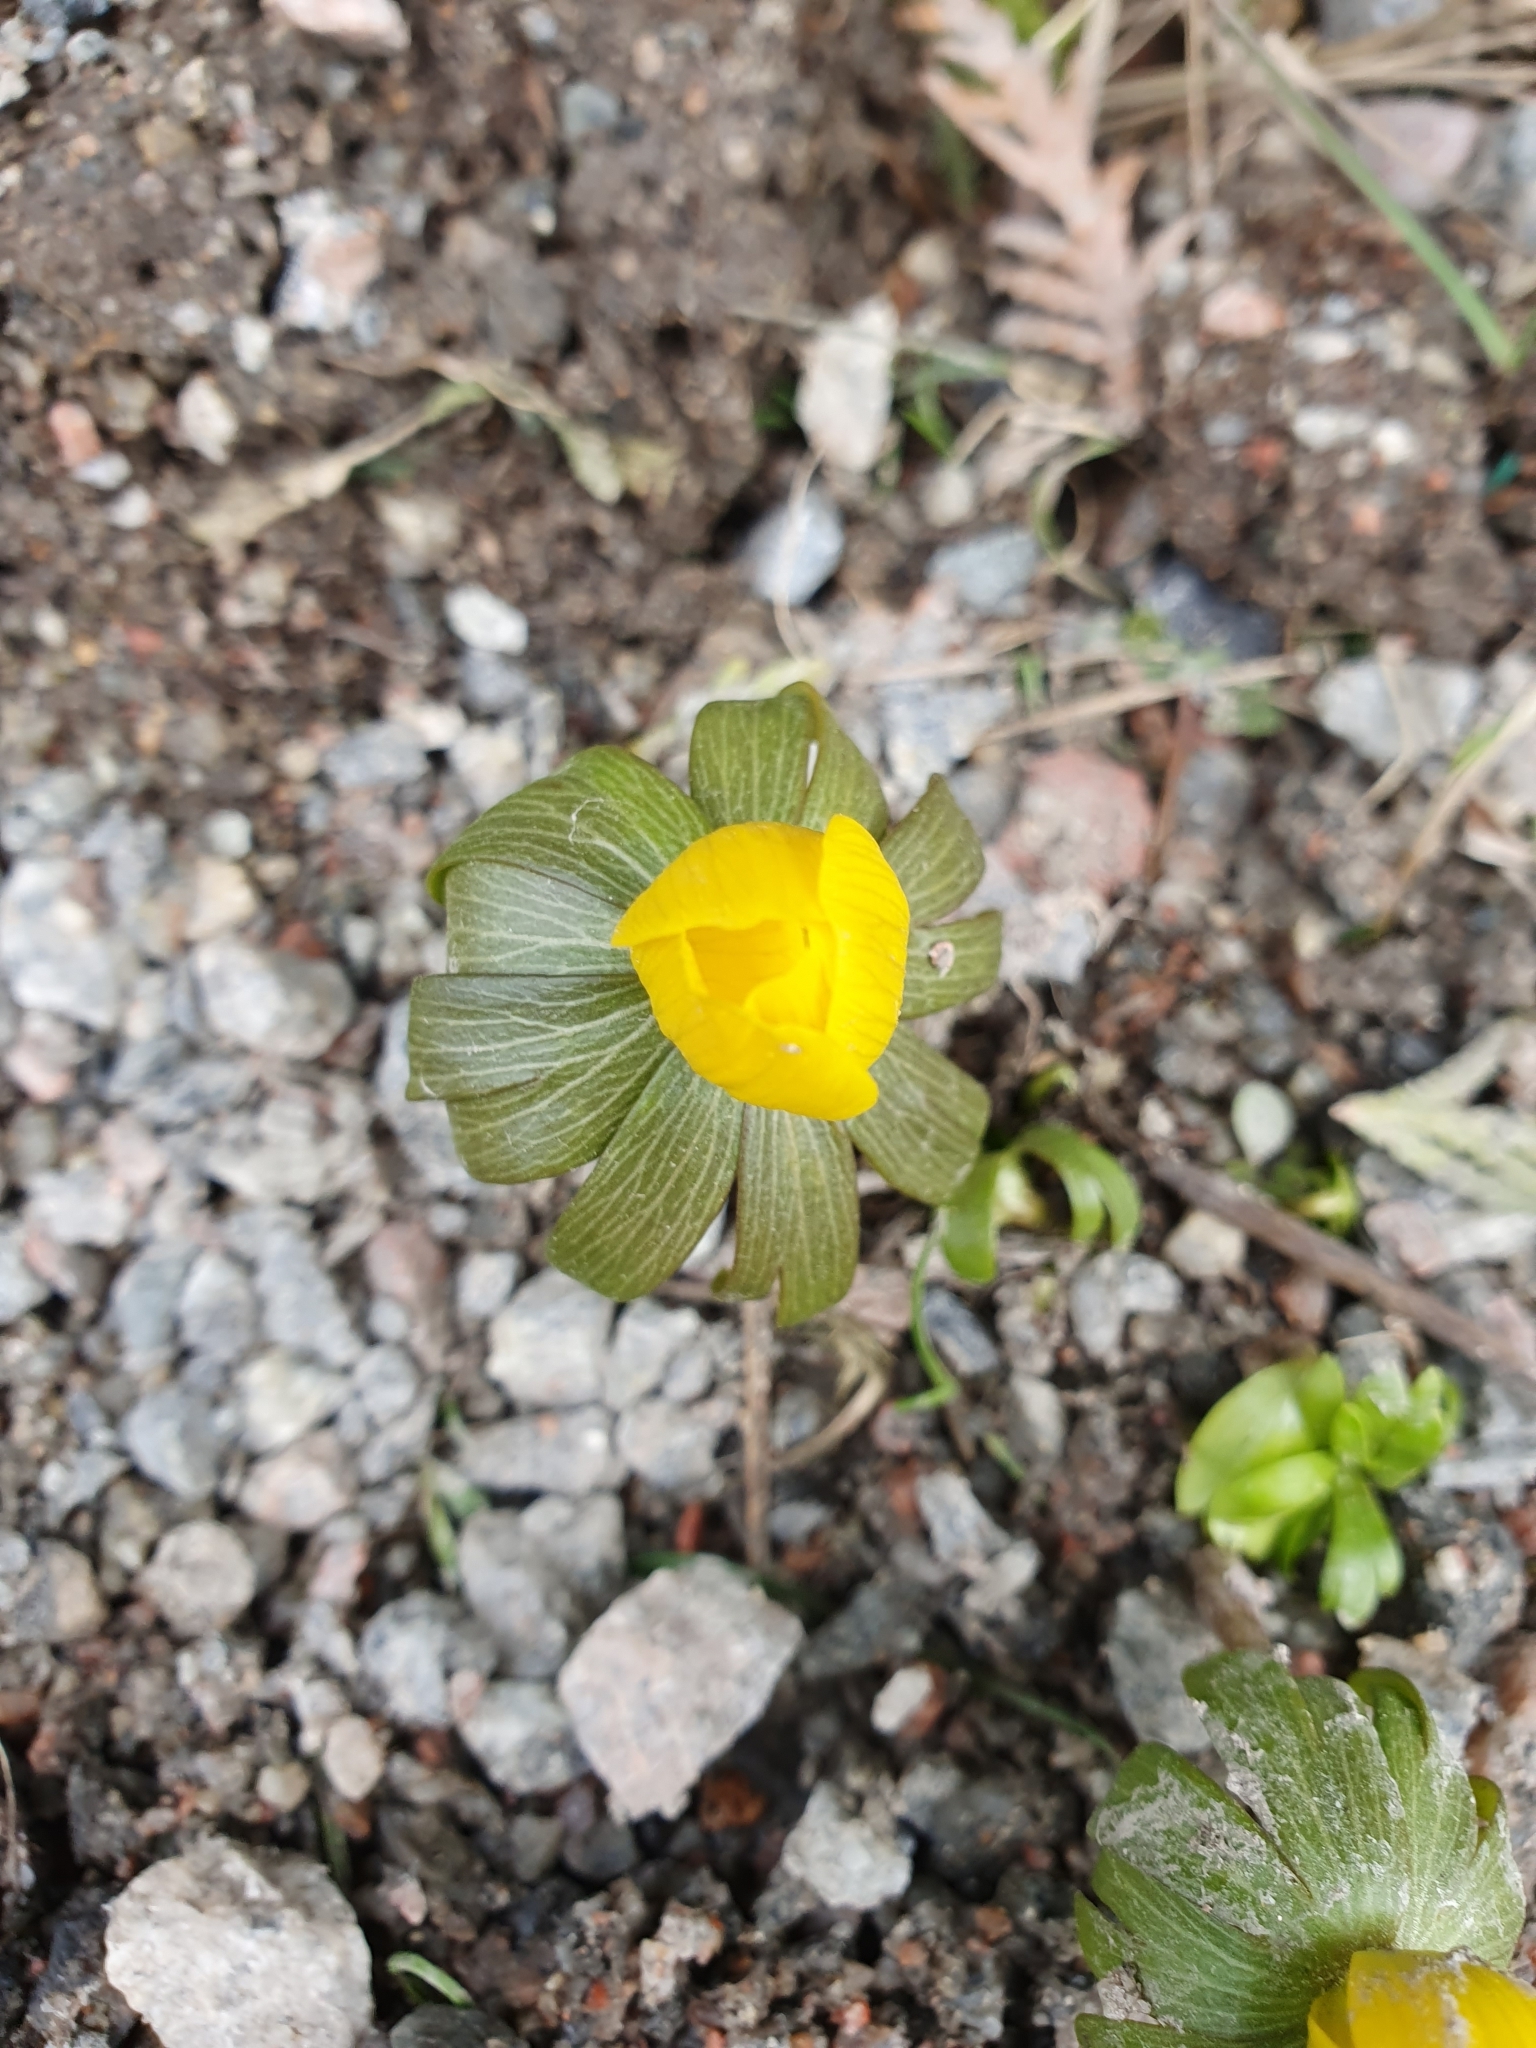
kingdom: Plantae
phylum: Tracheophyta
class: Magnoliopsida
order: Ranunculales
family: Ranunculaceae
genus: Eranthis
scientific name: Eranthis hyemalis
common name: Winter aconite
